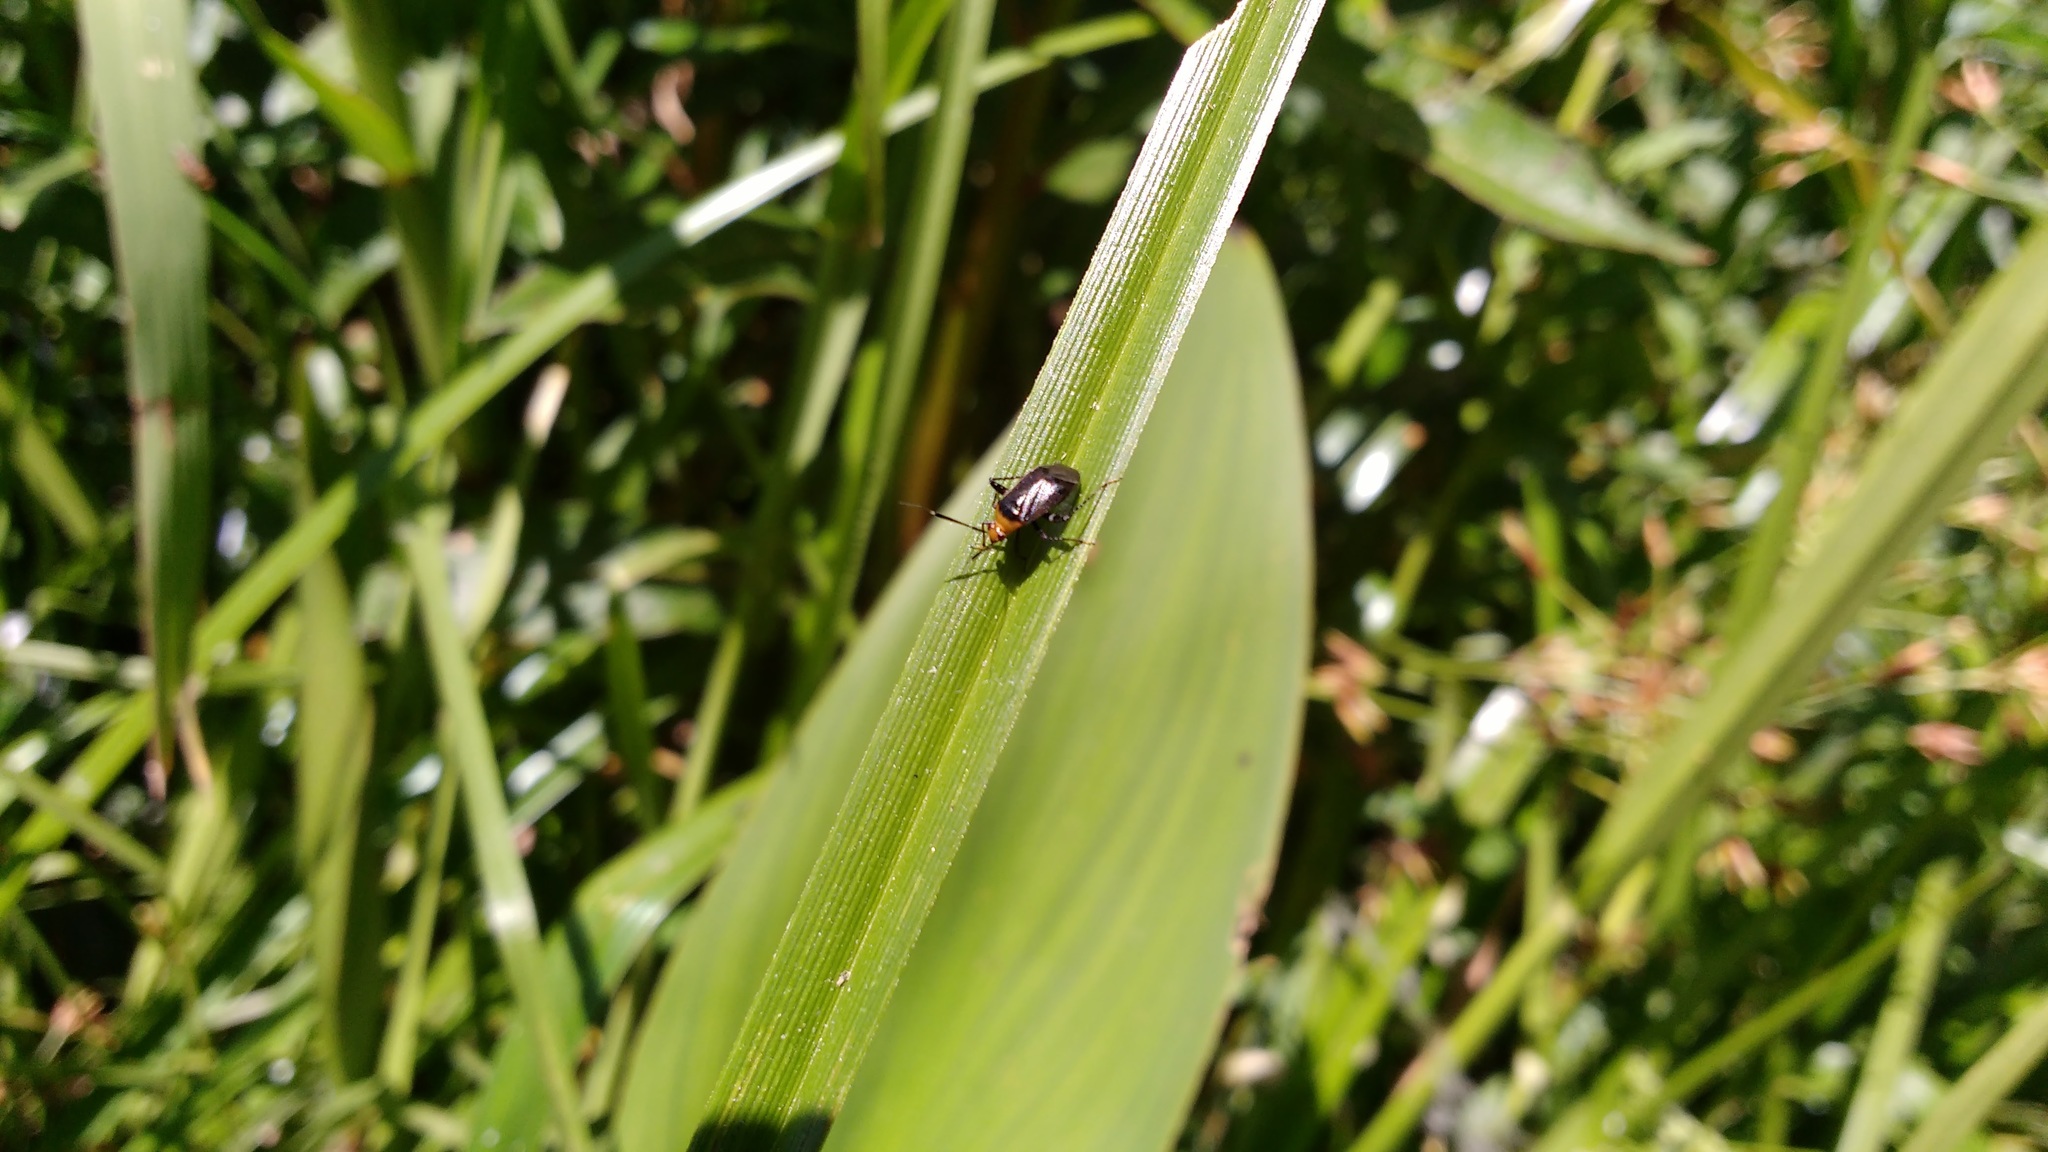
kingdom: Animalia
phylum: Arthropoda
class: Insecta
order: Hemiptera
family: Miridae
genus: Horciasinus
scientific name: Horciasinus argentinus
